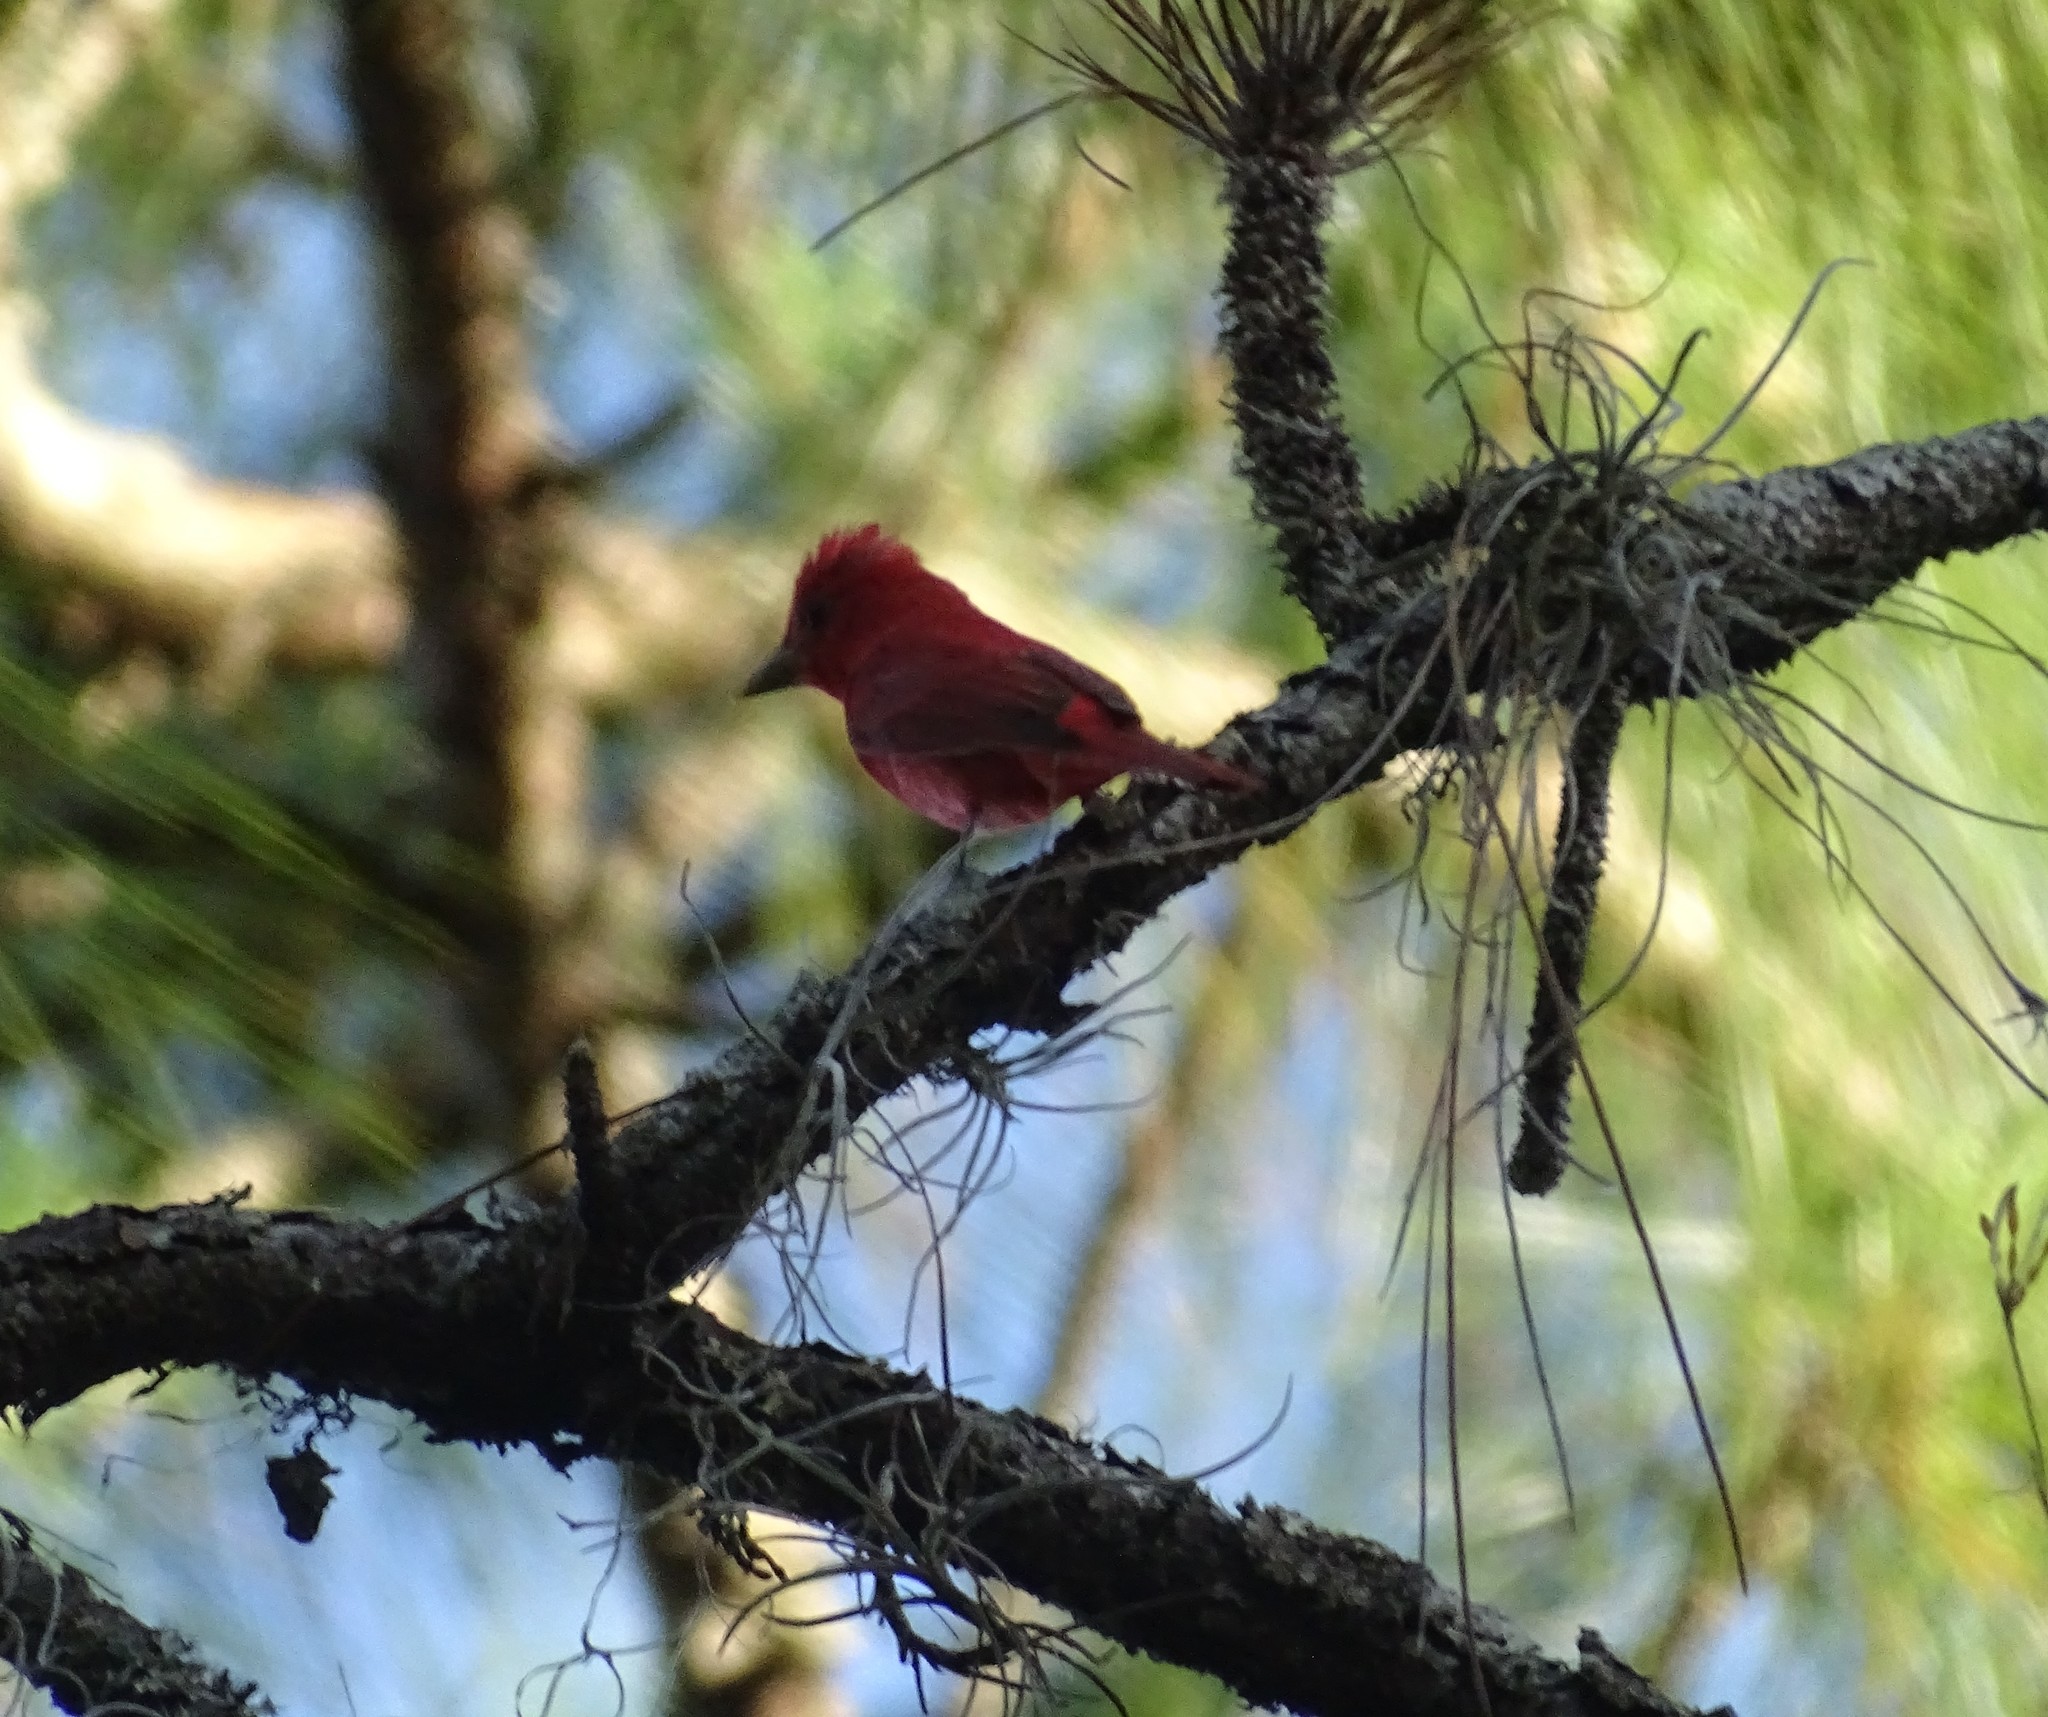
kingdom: Animalia
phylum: Chordata
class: Aves
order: Passeriformes
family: Cardinalidae
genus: Piranga
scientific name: Piranga rubra
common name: Summer tanager
